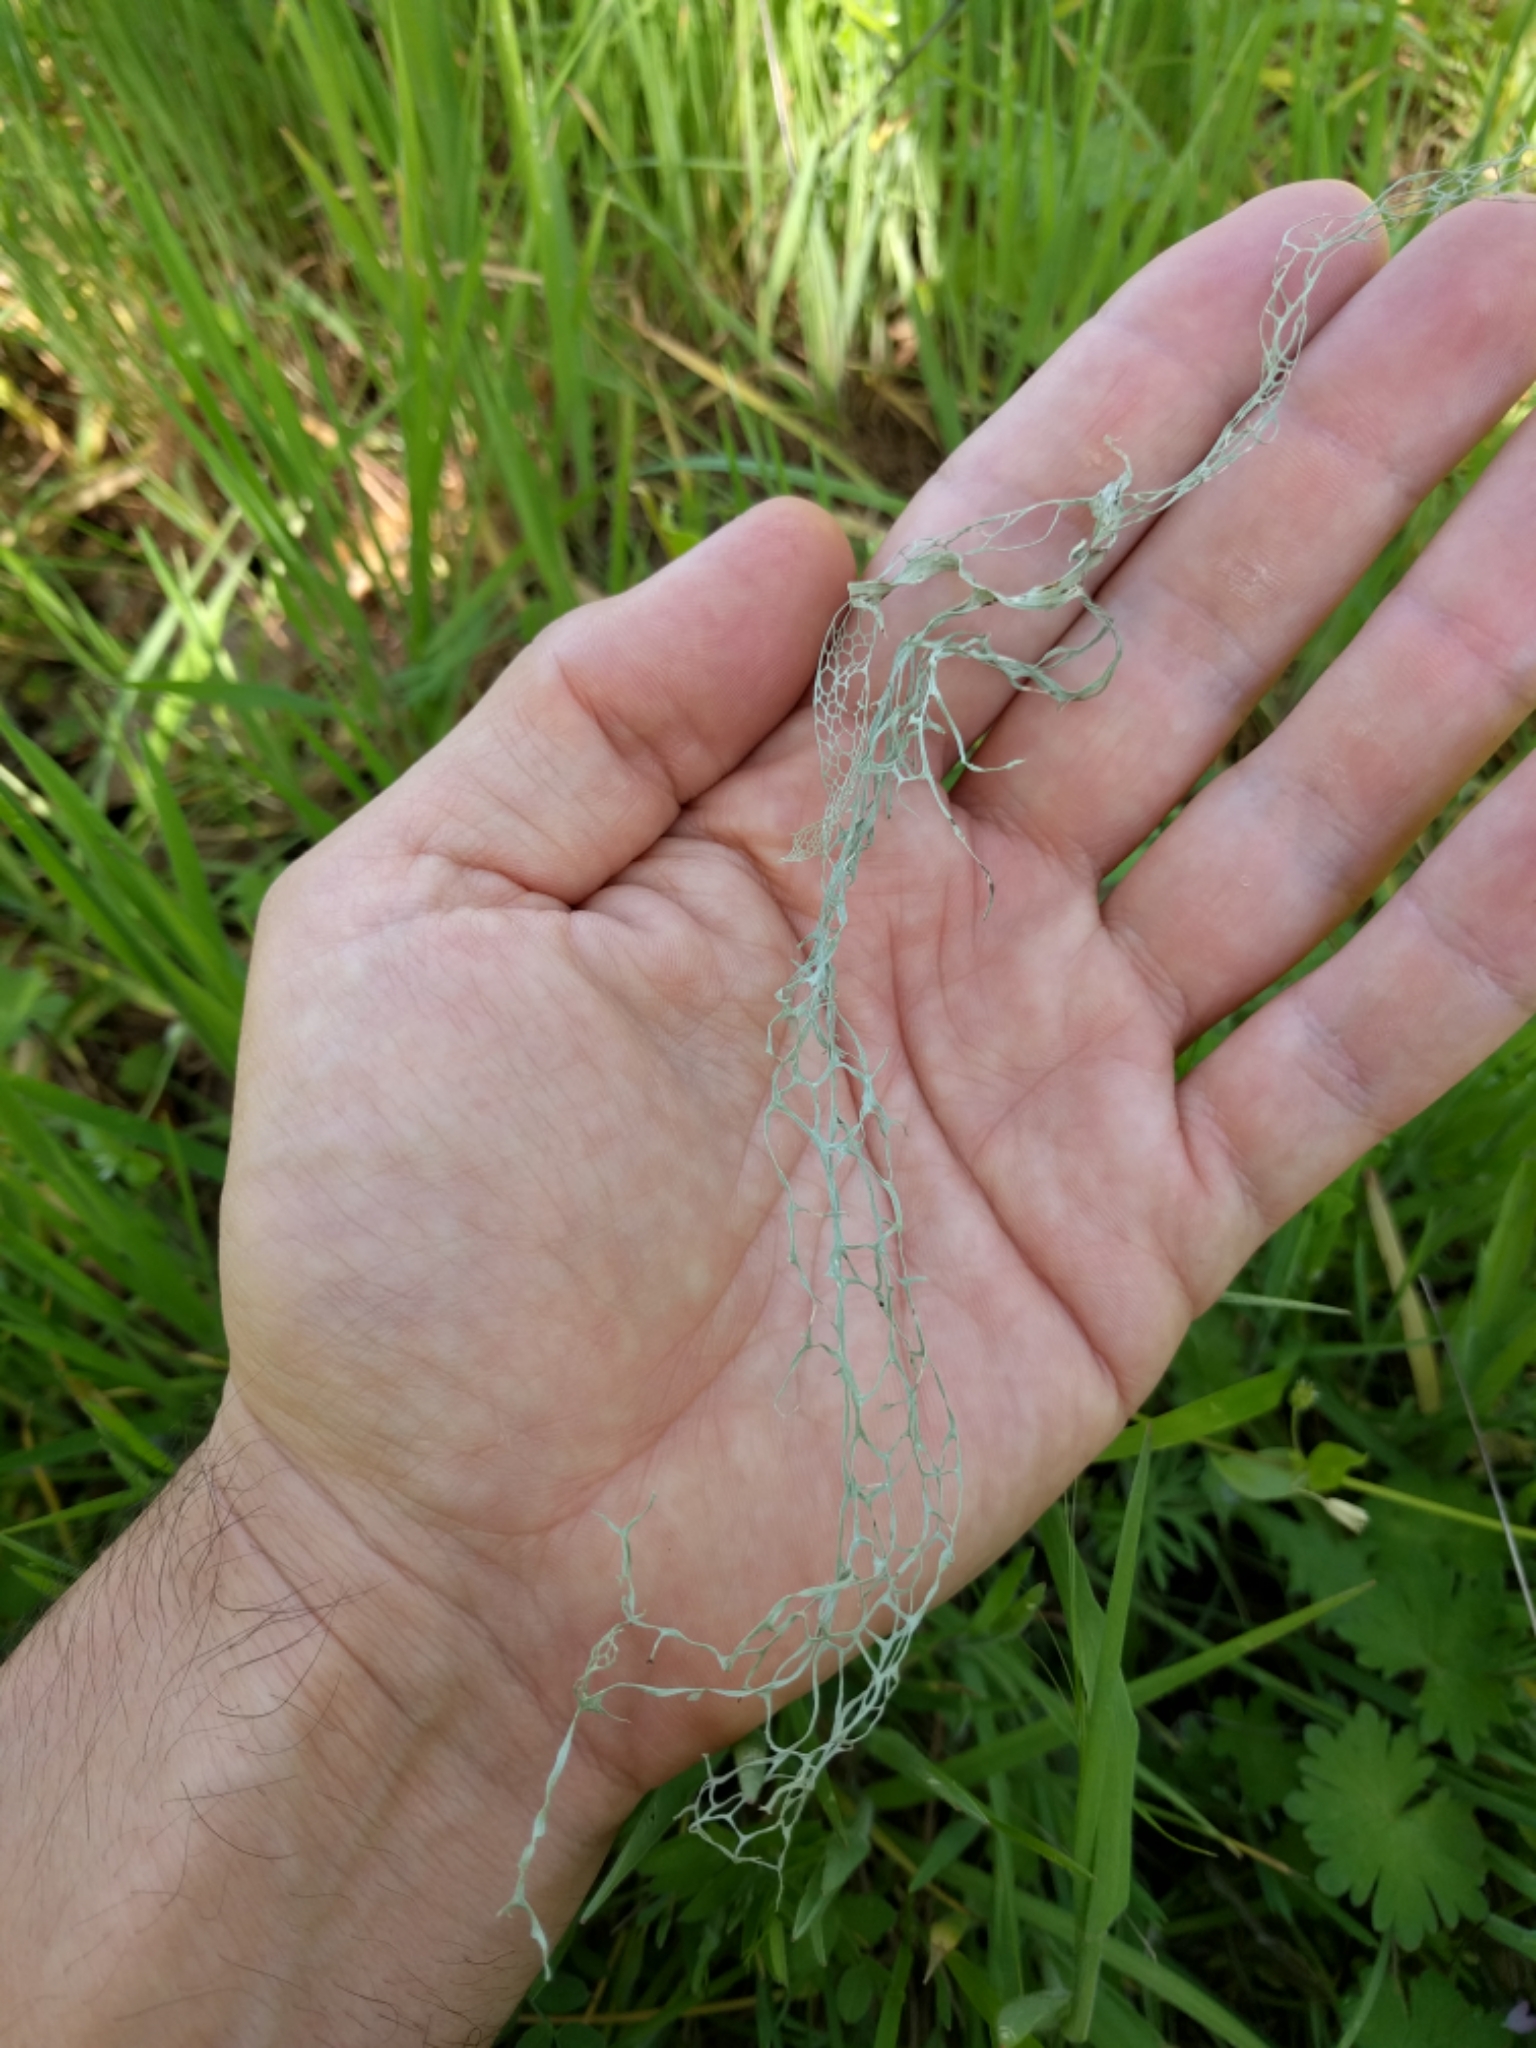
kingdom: Fungi
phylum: Ascomycota
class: Lecanoromycetes
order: Lecanorales
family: Ramalinaceae
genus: Ramalina
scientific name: Ramalina menziesii
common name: Lace lichen
